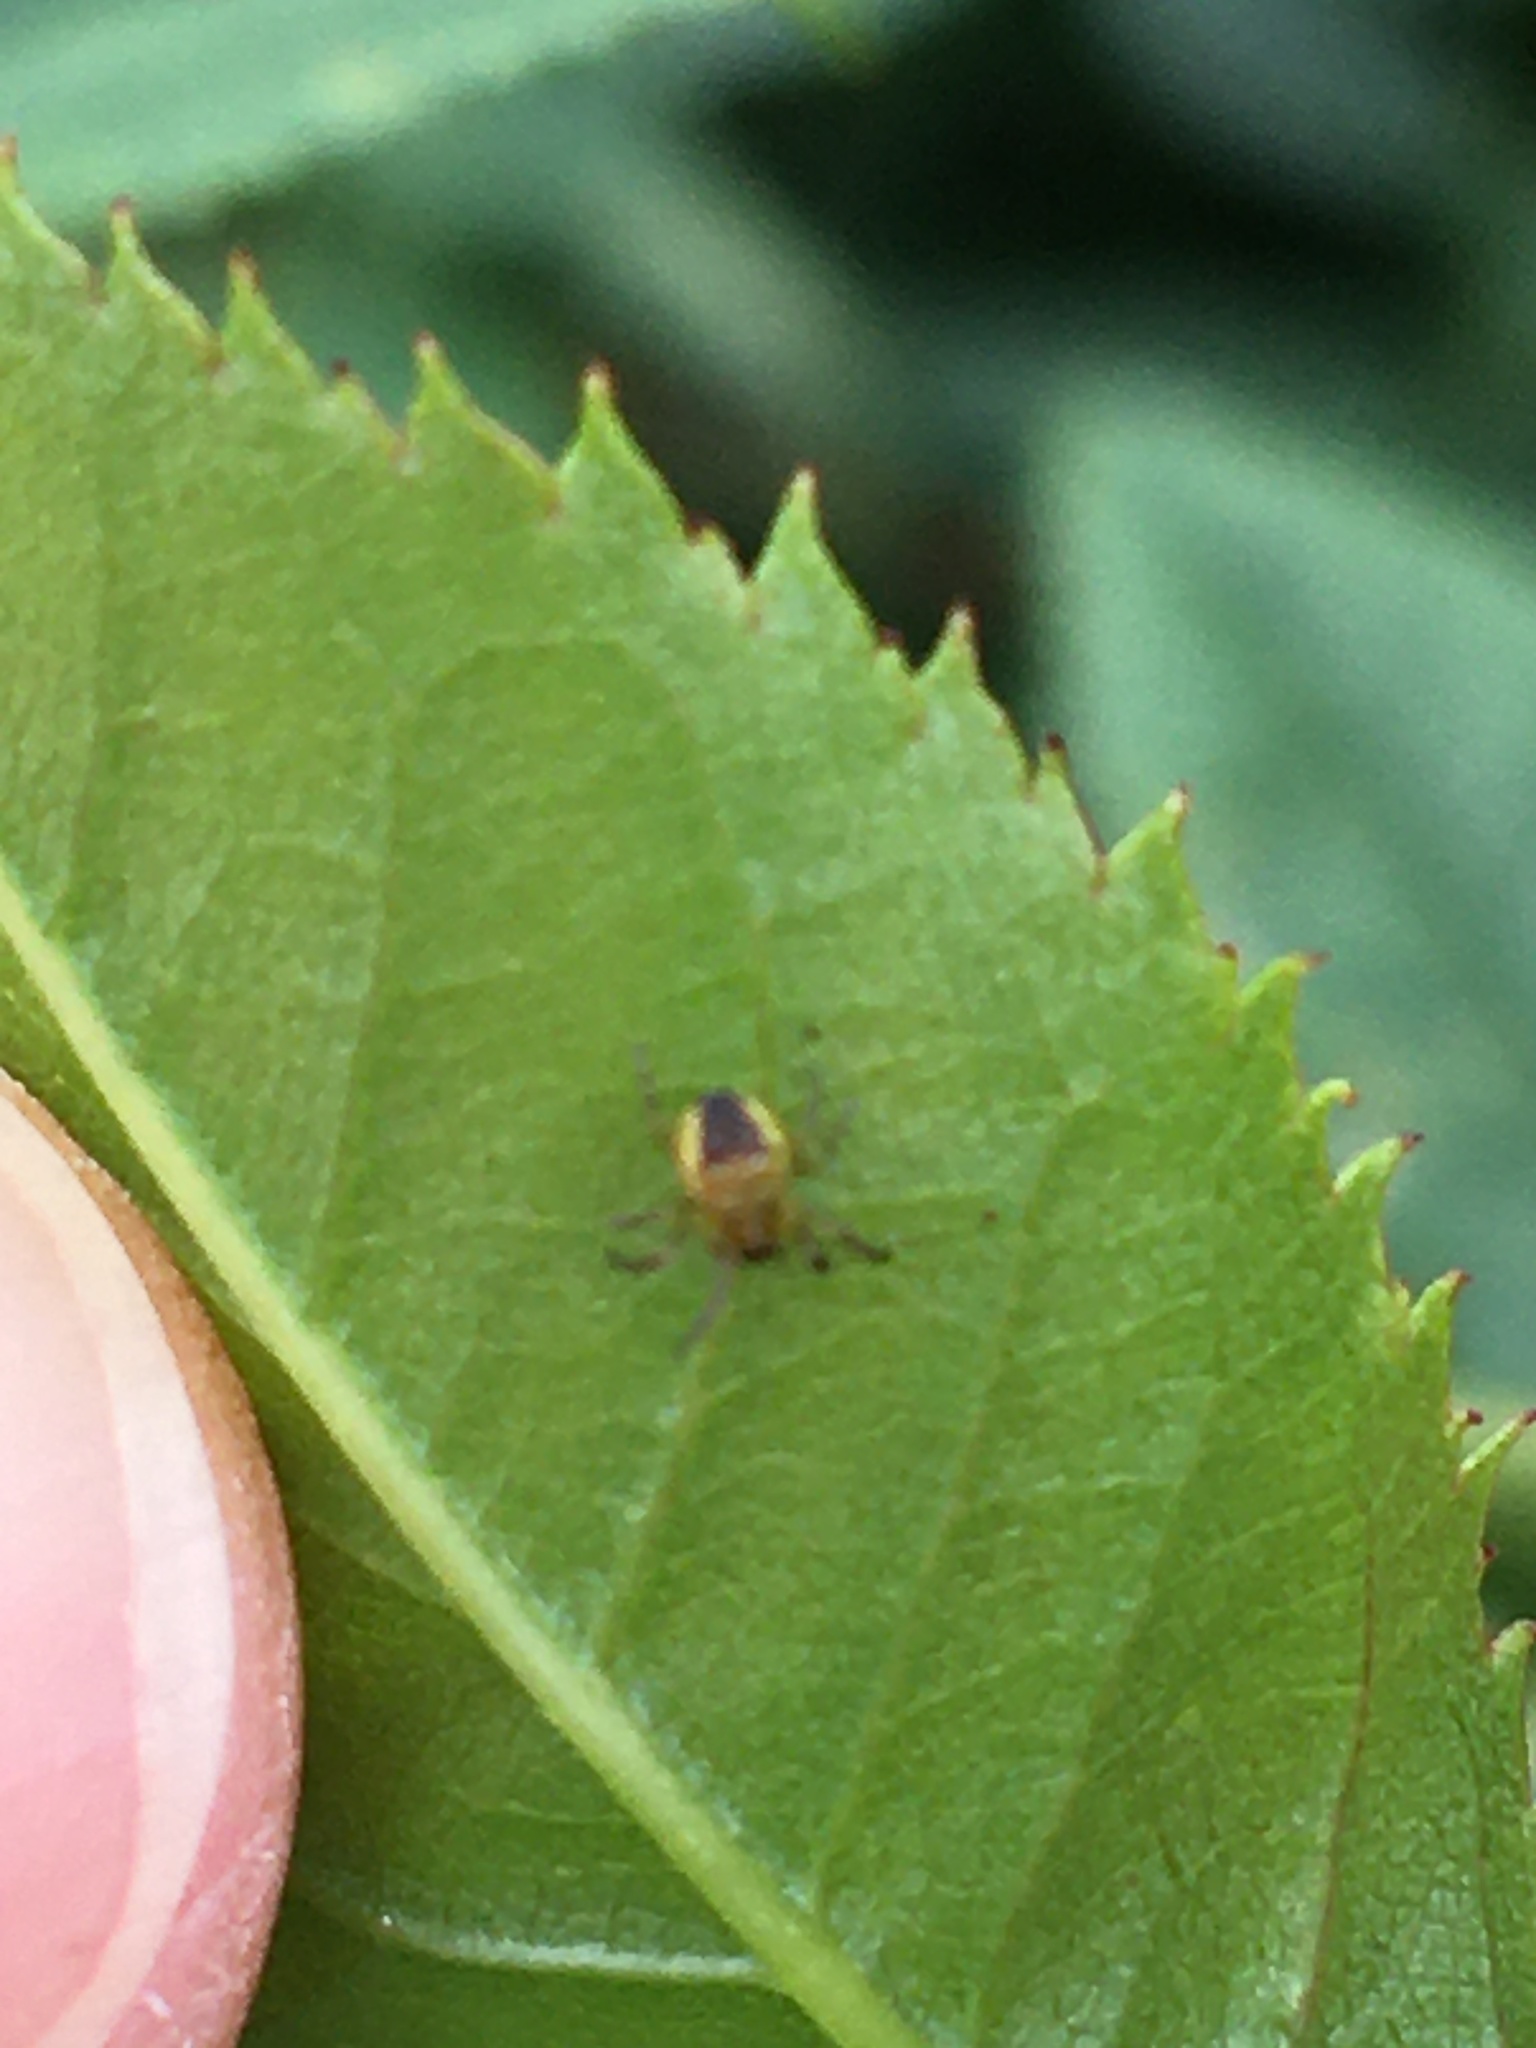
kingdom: Animalia
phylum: Arthropoda
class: Arachnida
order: Araneae
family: Araneidae
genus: Araneus
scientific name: Araneus diadematus
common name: Cross orbweaver
